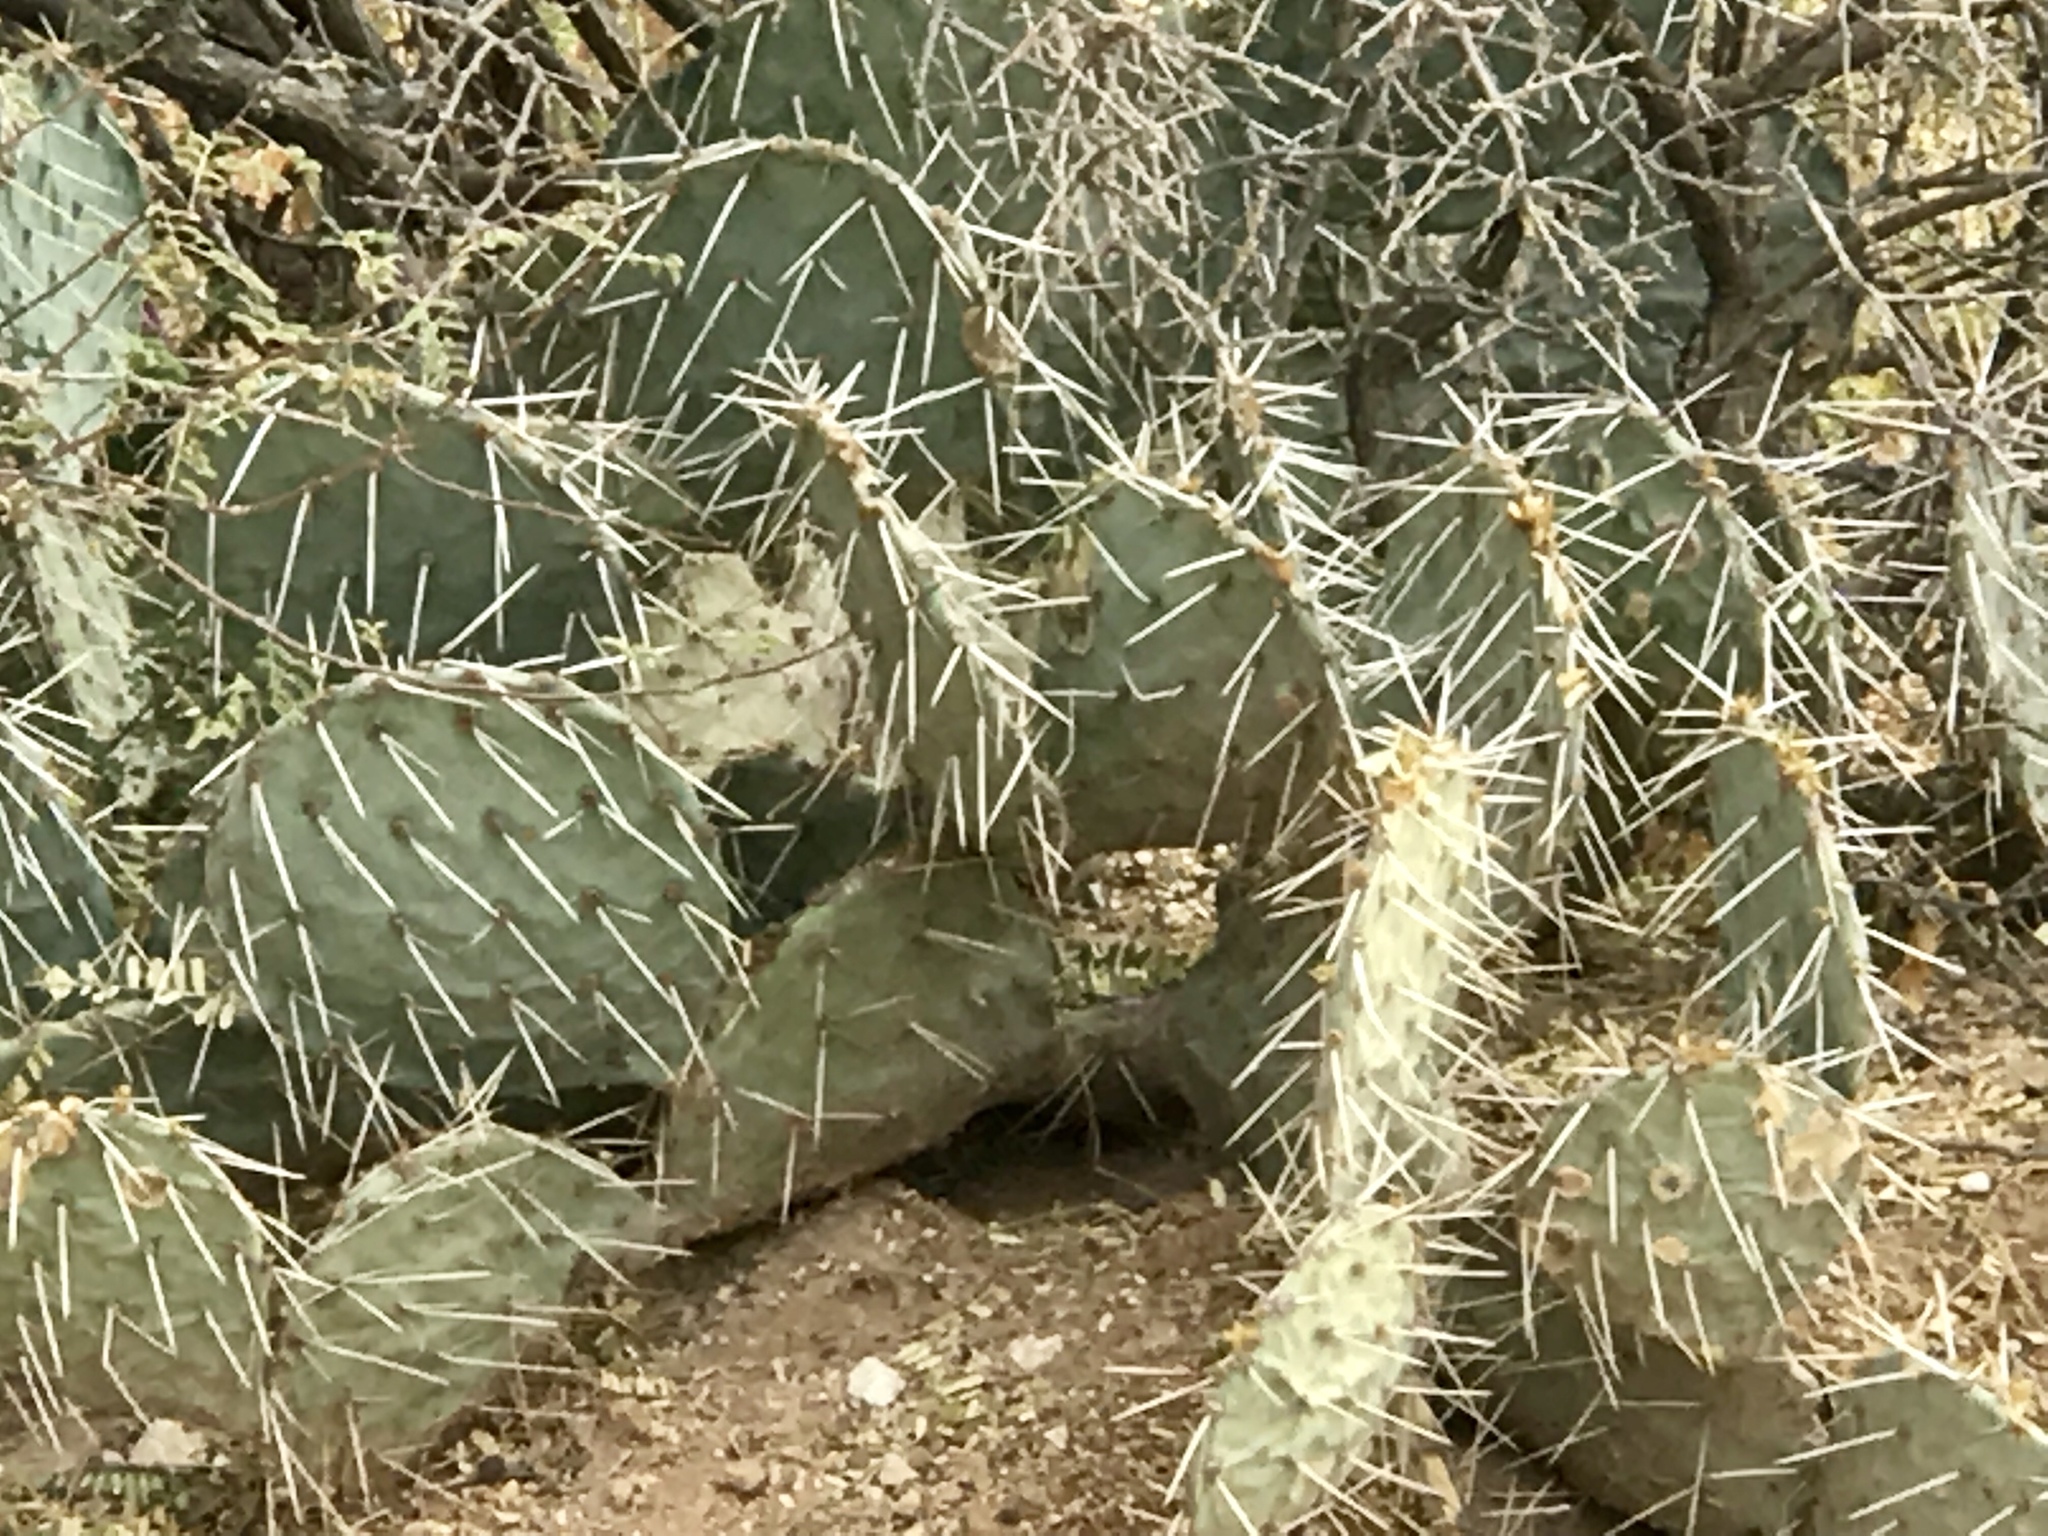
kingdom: Plantae
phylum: Tracheophyta
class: Magnoliopsida
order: Caryophyllales
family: Cactaceae
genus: Opuntia
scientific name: Opuntia phaeacantha
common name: New mexico prickly-pear
